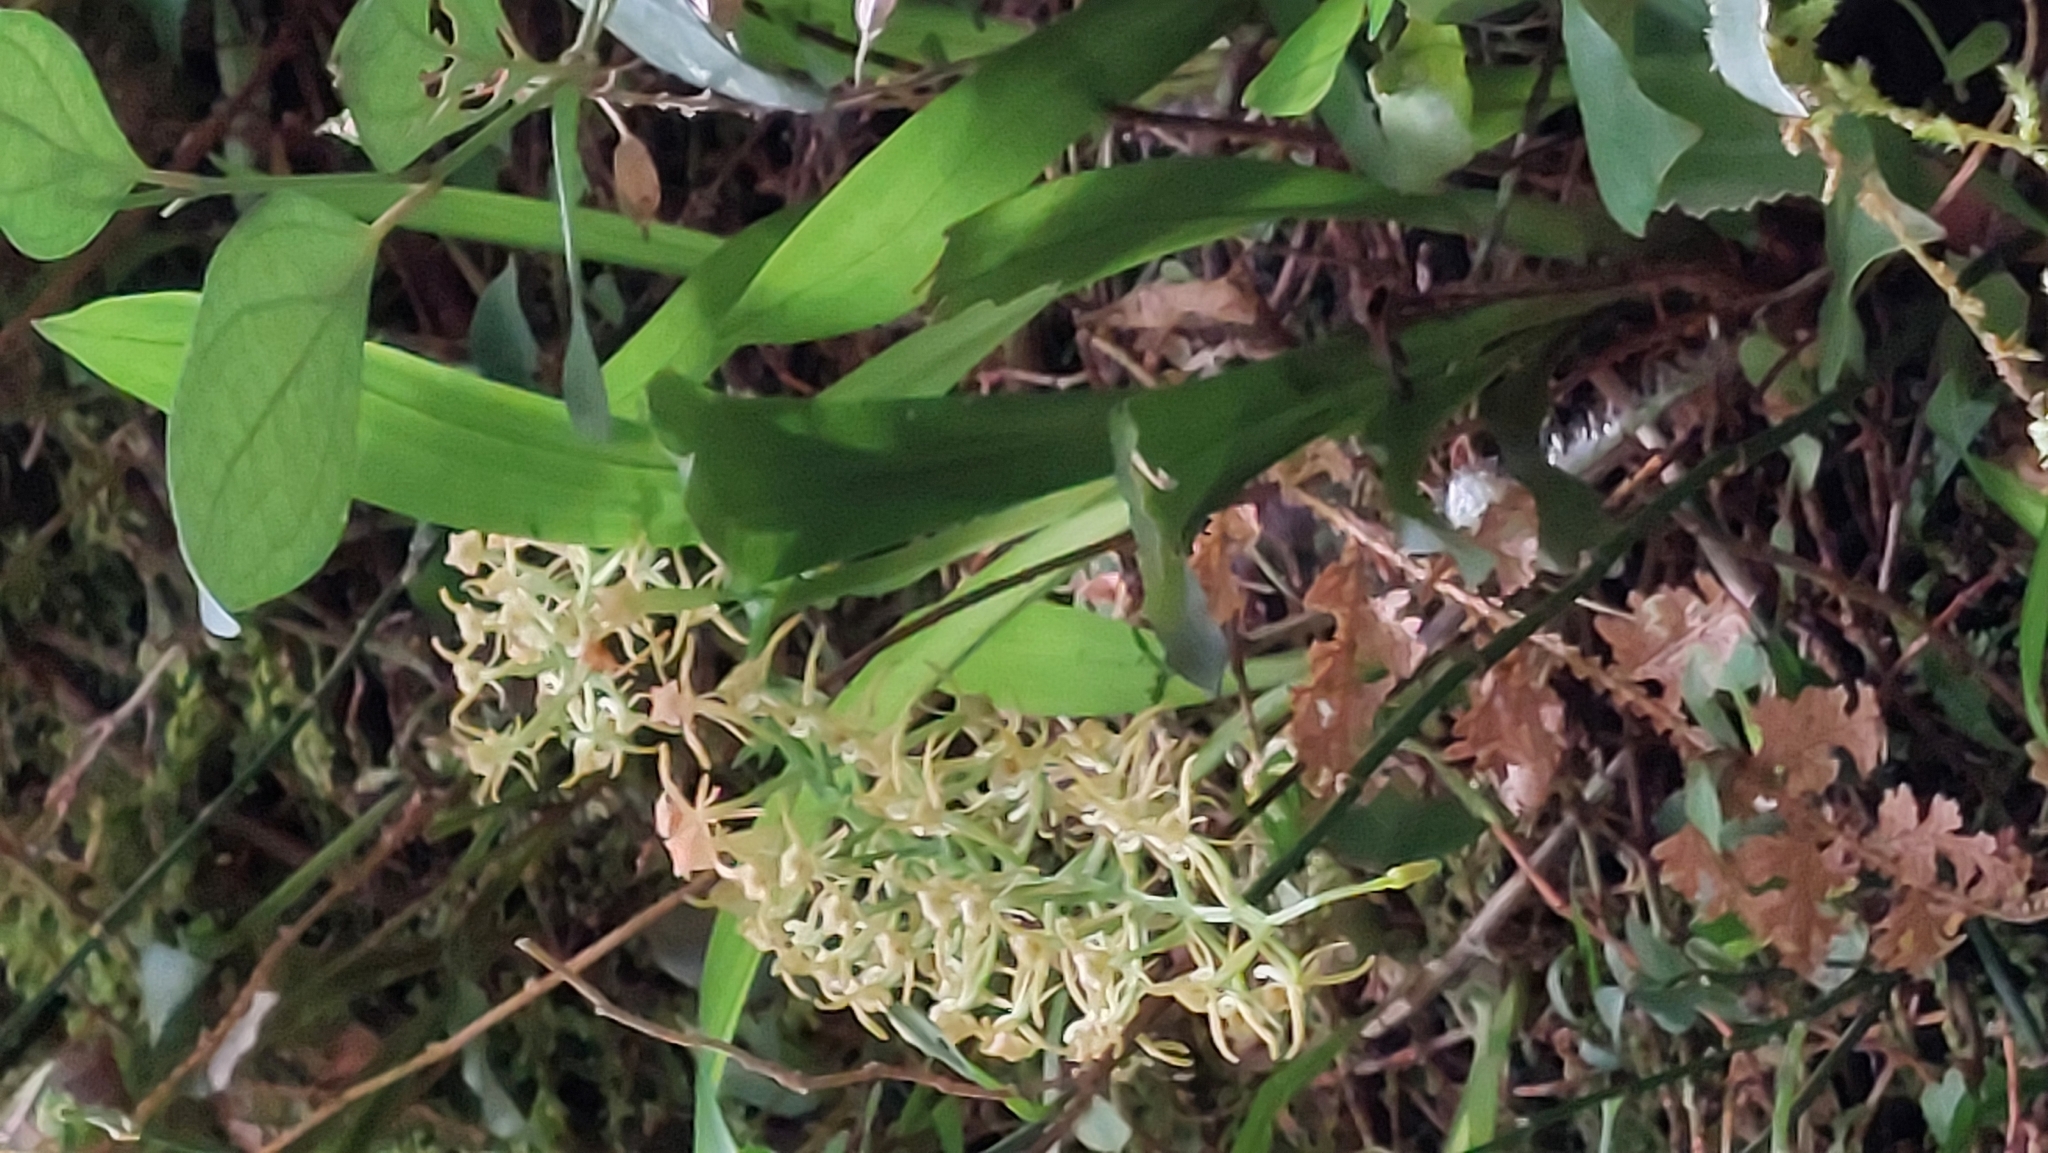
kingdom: Plantae
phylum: Tracheophyta
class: Liliopsida
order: Asparagales
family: Orchidaceae
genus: Liparis
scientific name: Liparis nakaharae
